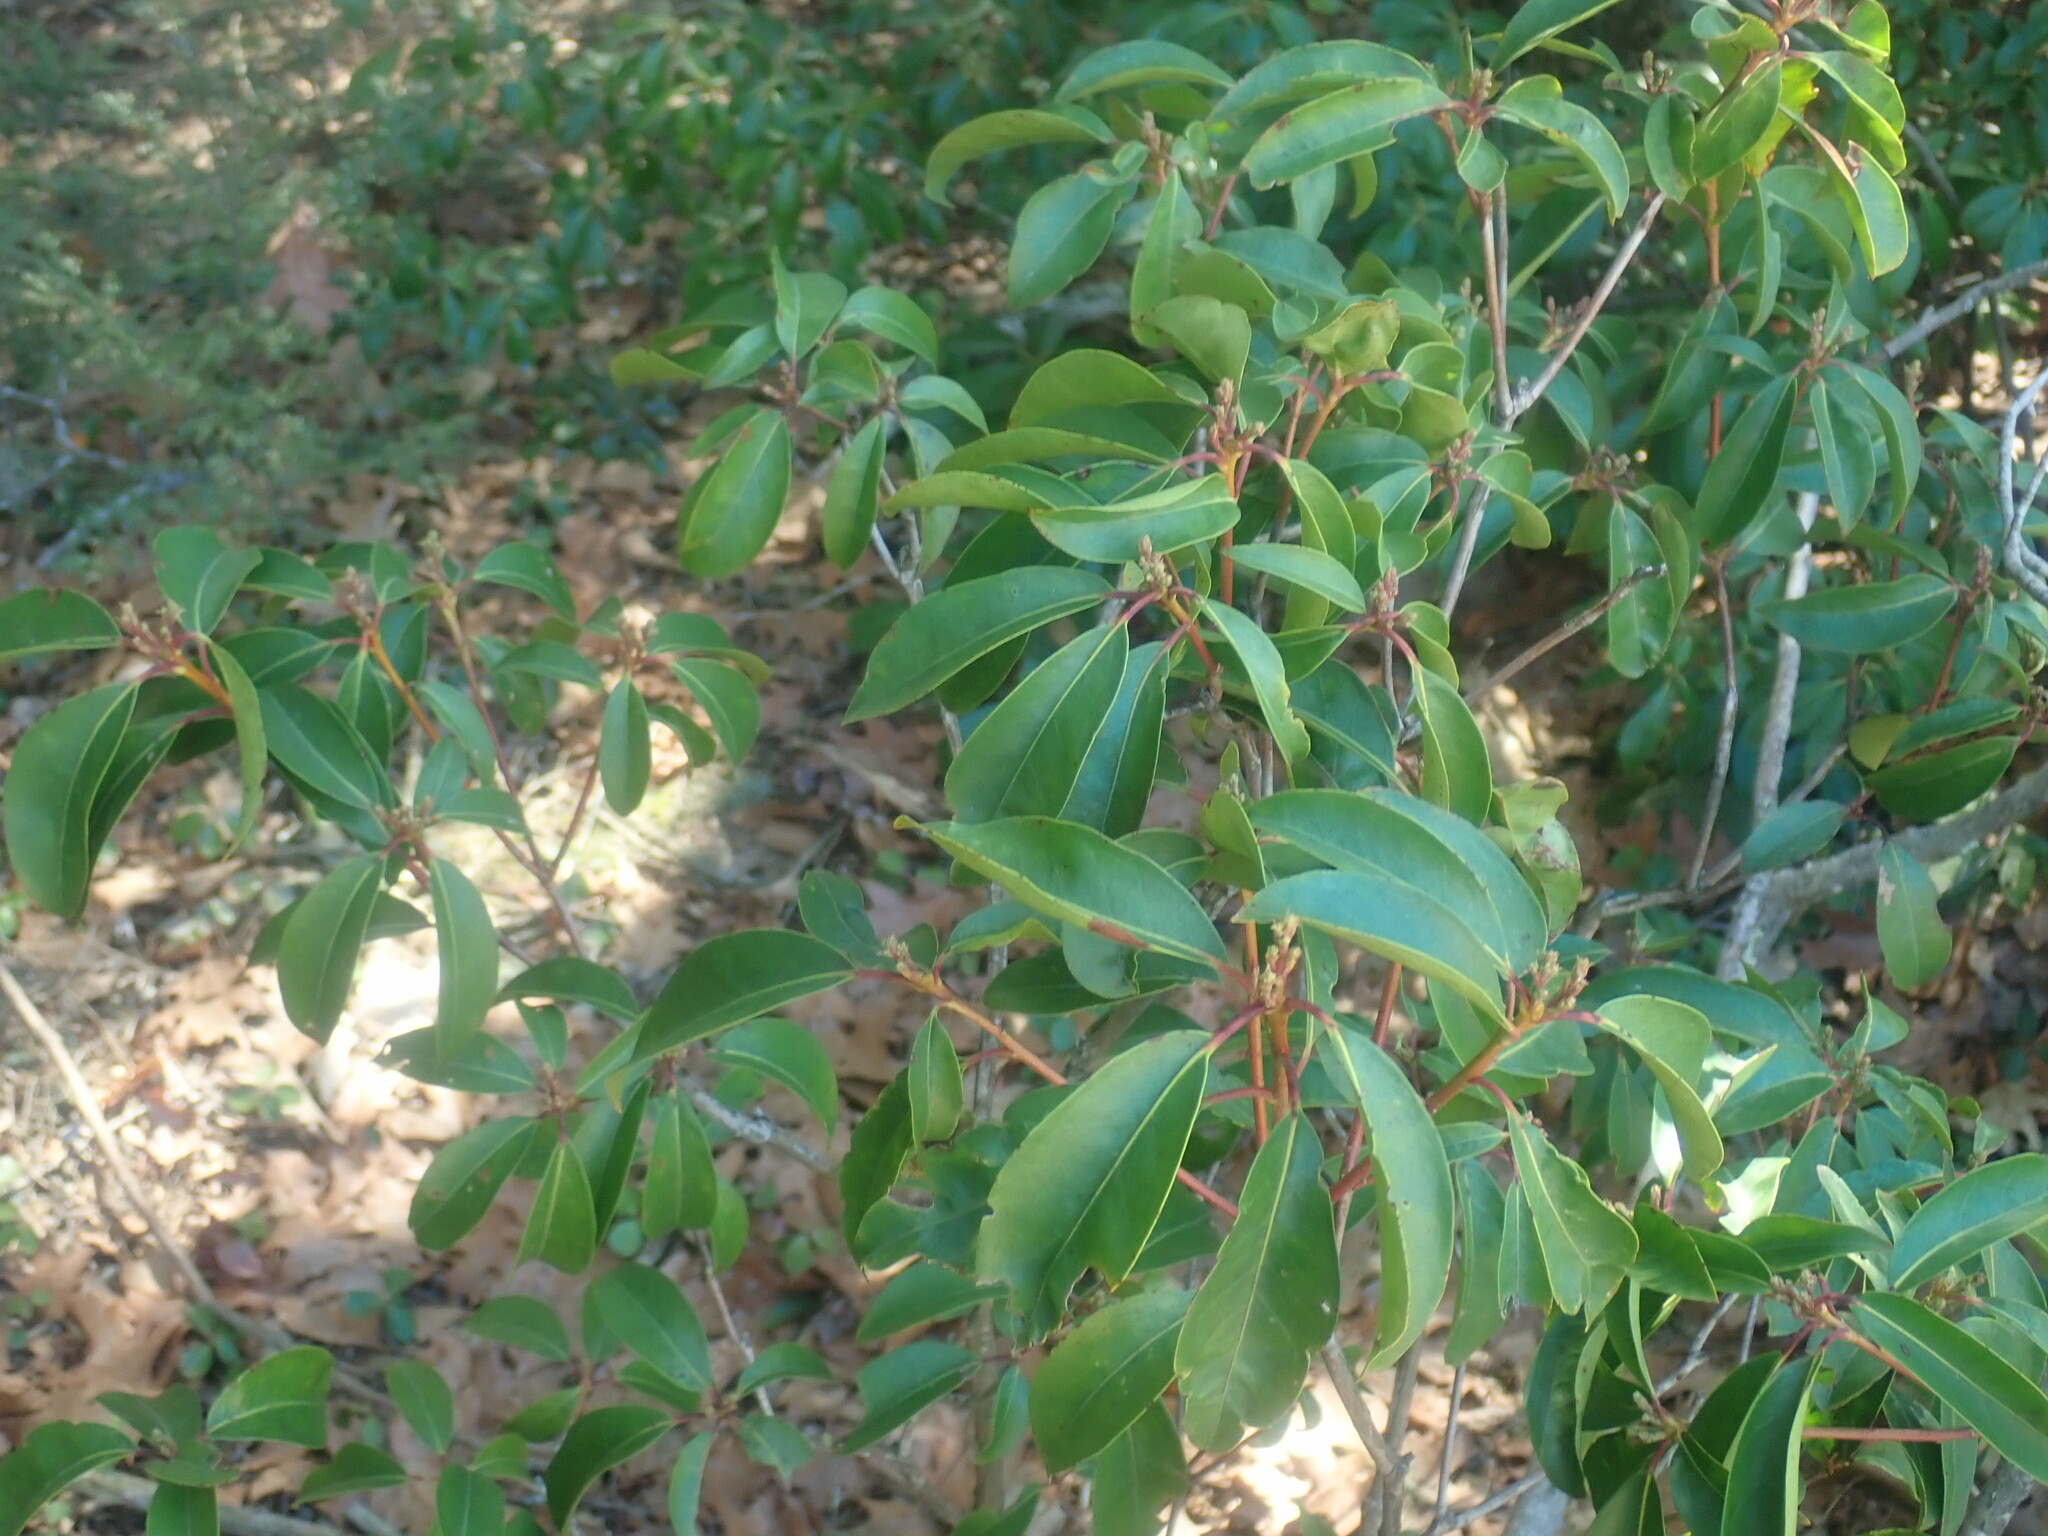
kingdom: Plantae
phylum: Tracheophyta
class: Magnoliopsida
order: Ericales
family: Ericaceae
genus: Kalmia
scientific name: Kalmia latifolia
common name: Mountain-laurel
